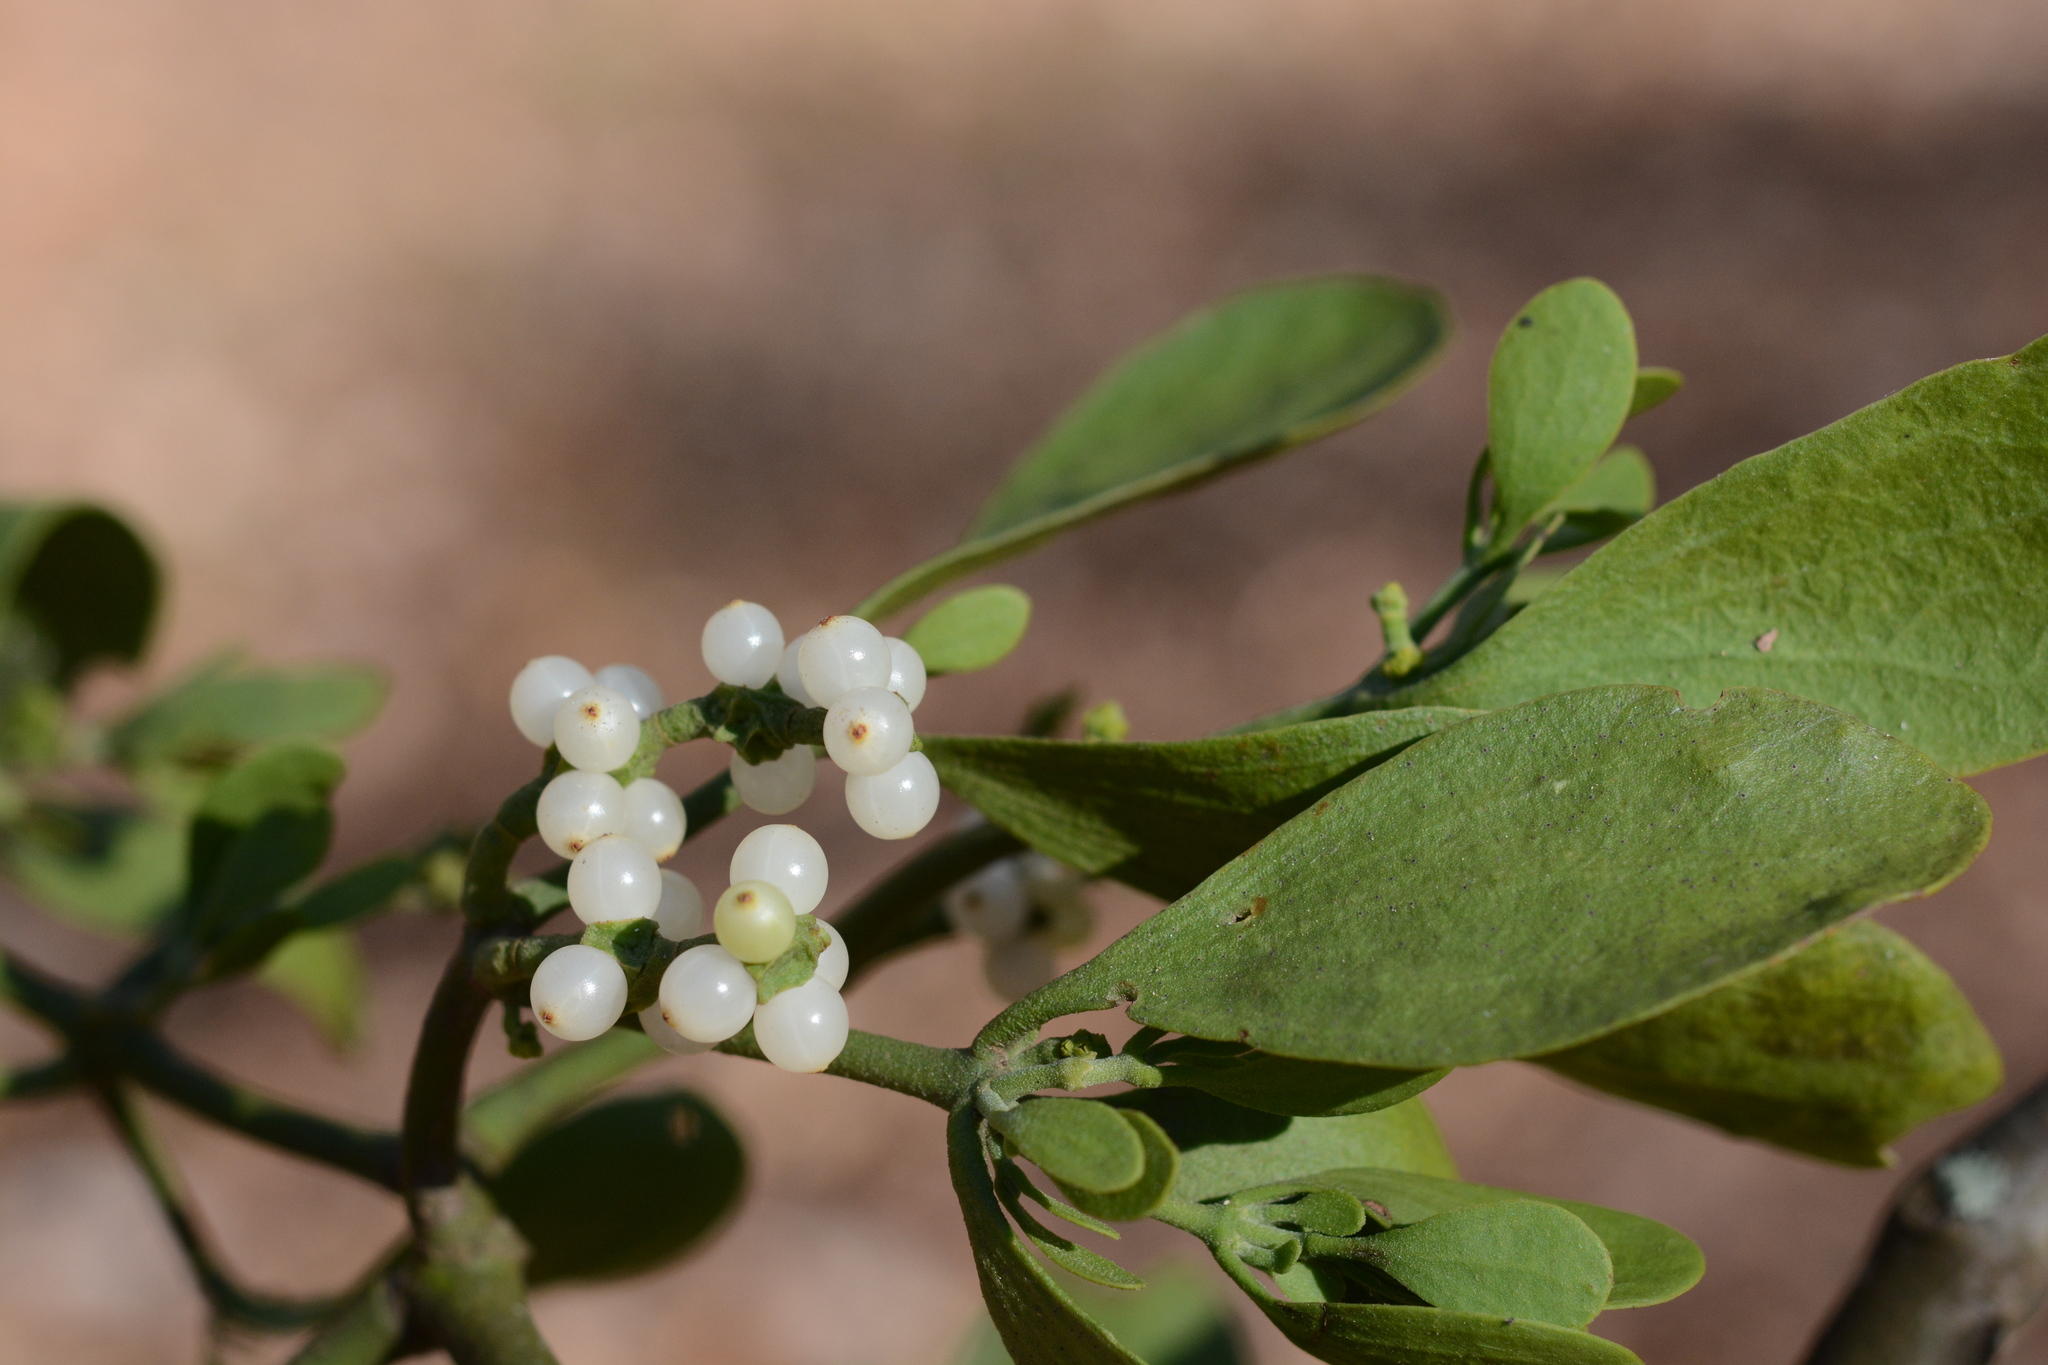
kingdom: Plantae
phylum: Tracheophyta
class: Magnoliopsida
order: Santalales
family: Viscaceae
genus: Phoradendron
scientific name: Phoradendron leucarpum
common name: Pacific mistletoe
